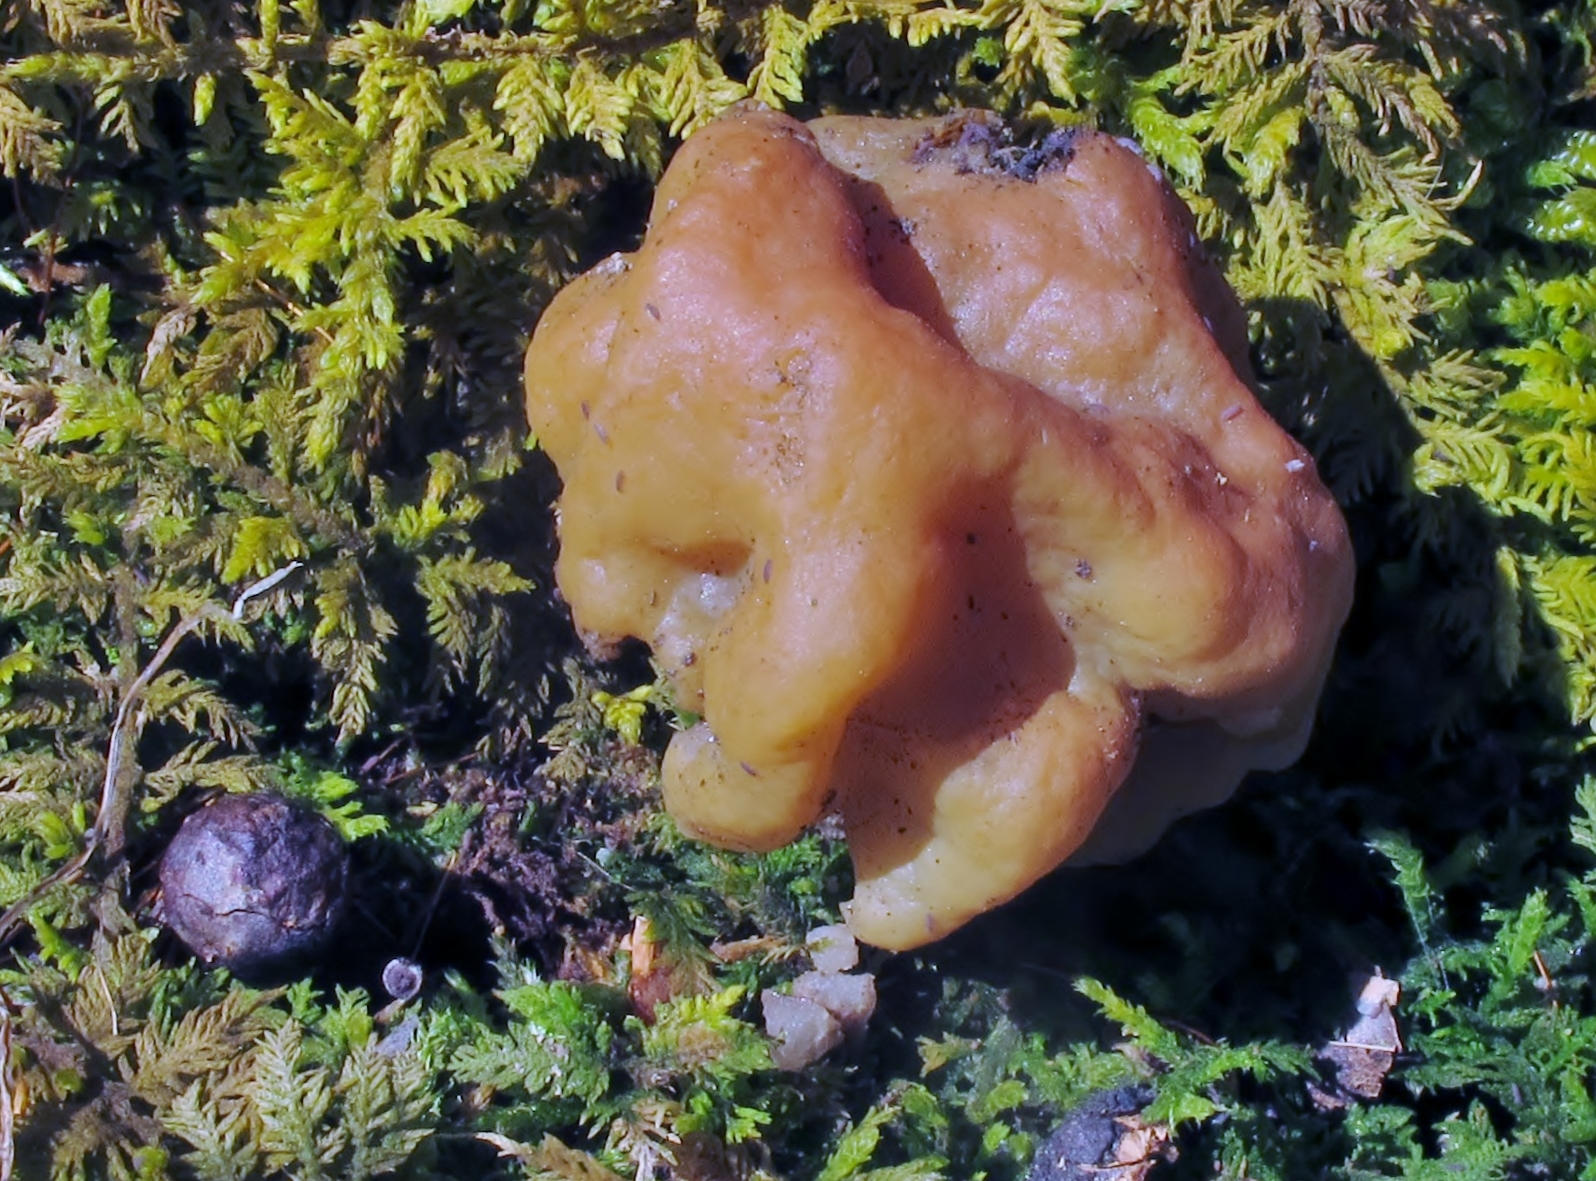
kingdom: Fungi
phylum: Ascomycota
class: Pezizomycetes
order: Pezizales
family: Discinaceae
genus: Gyromitra
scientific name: Gyromitra korfii
